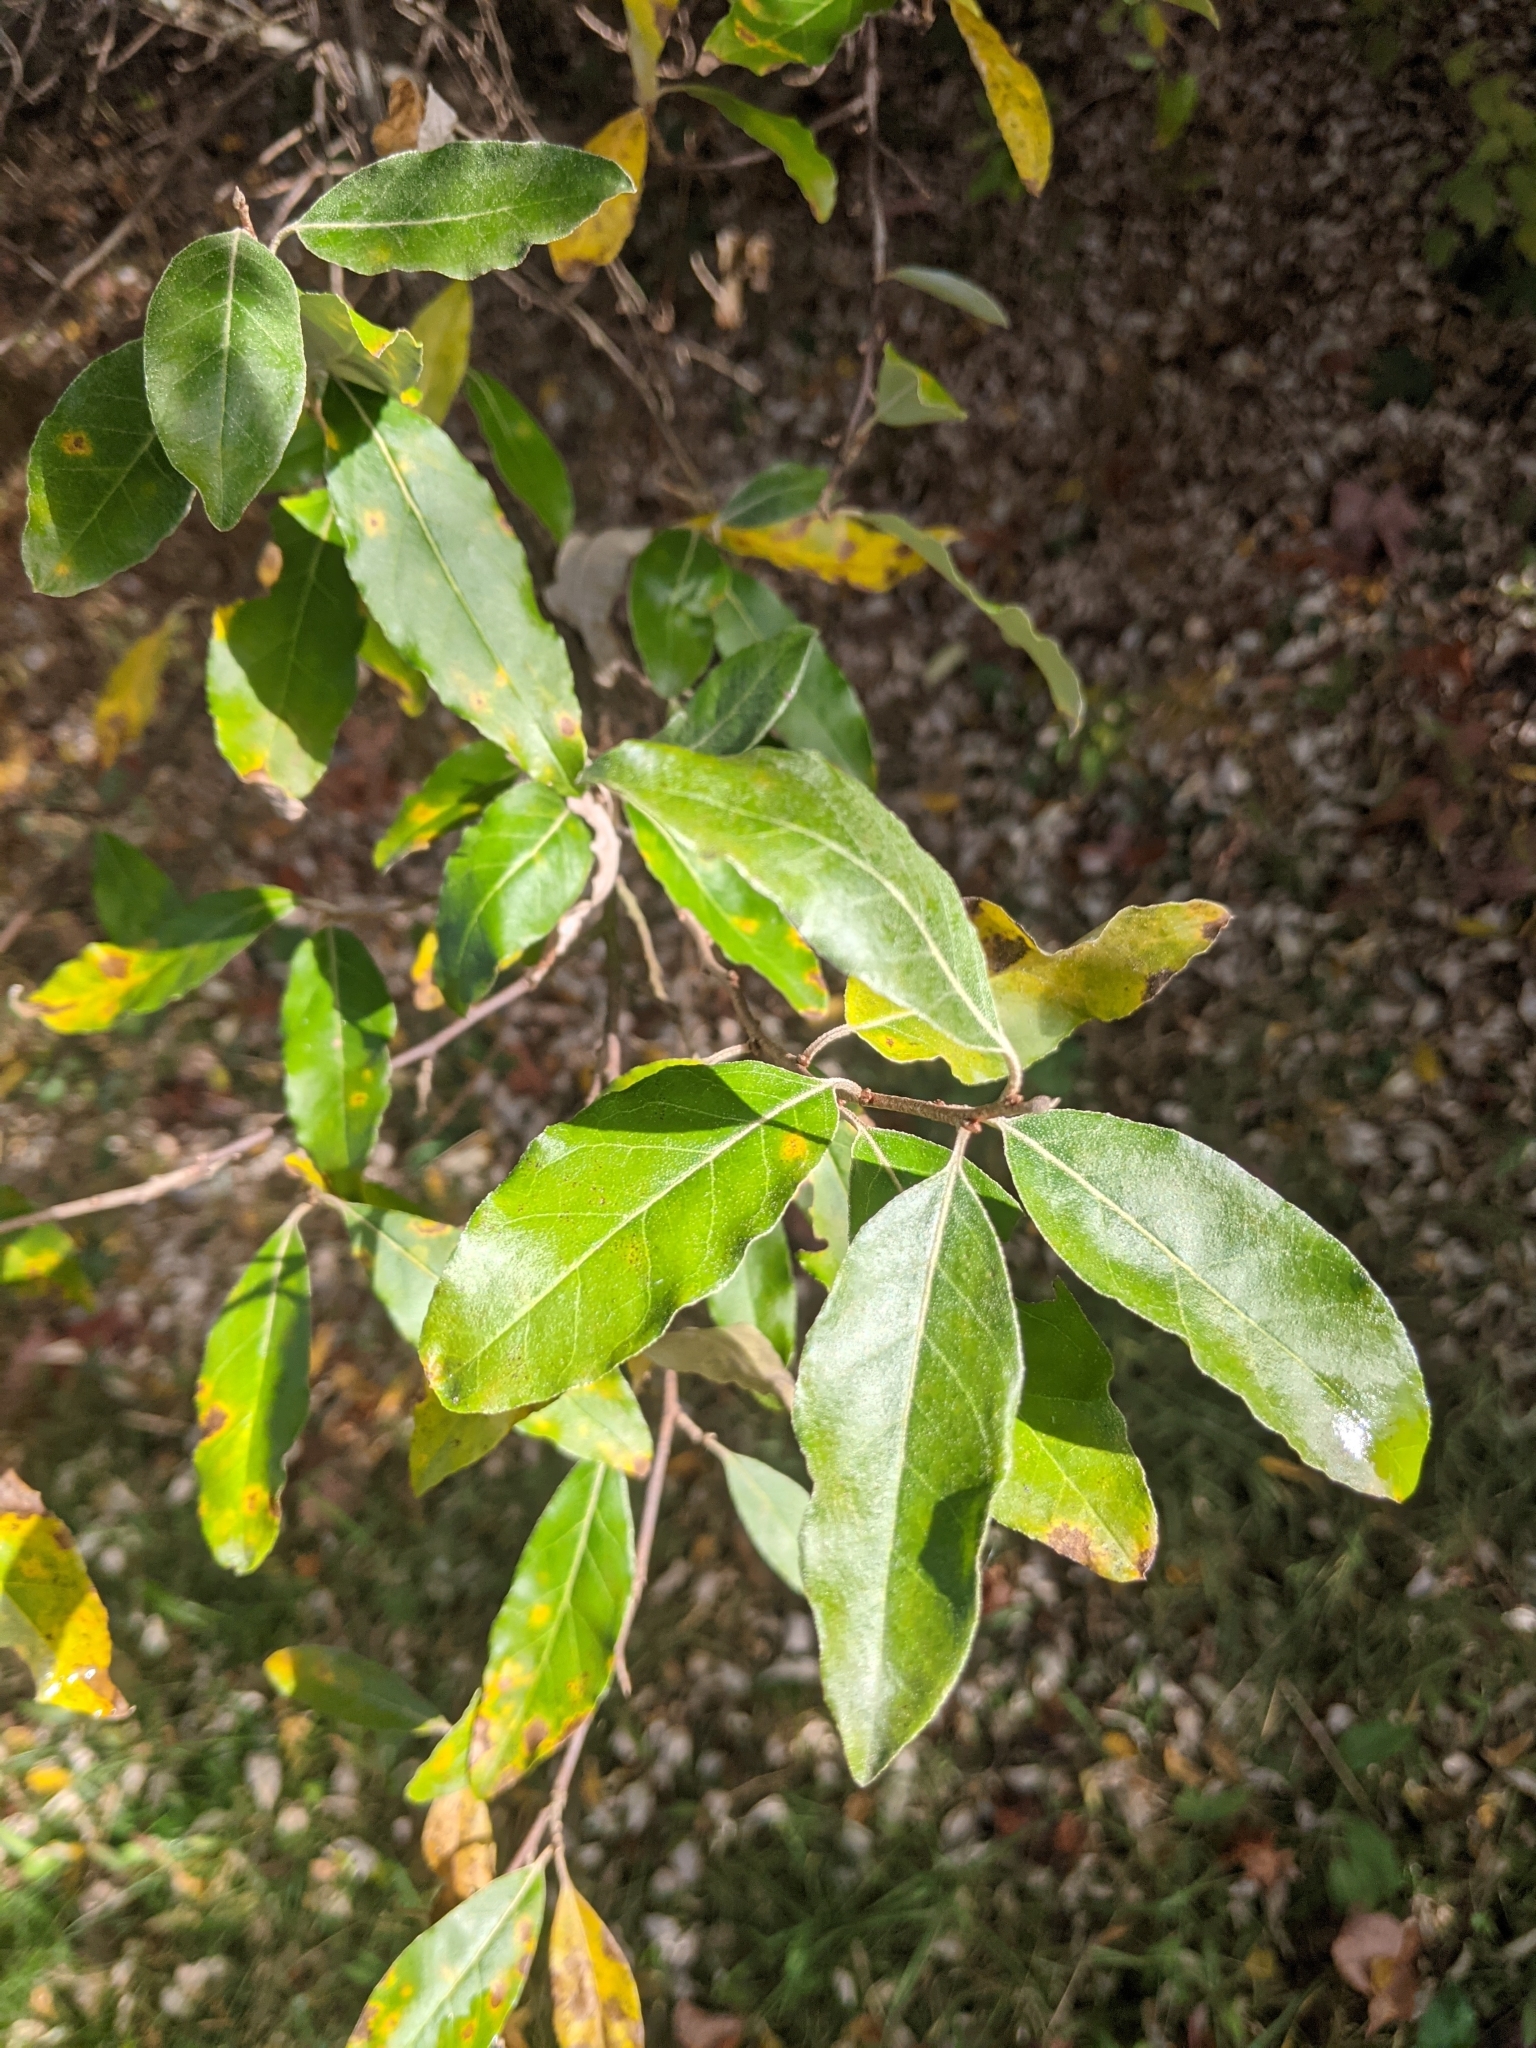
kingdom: Plantae
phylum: Tracheophyta
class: Magnoliopsida
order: Rosales
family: Elaeagnaceae
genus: Elaeagnus
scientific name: Elaeagnus umbellata
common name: Autumn olive
